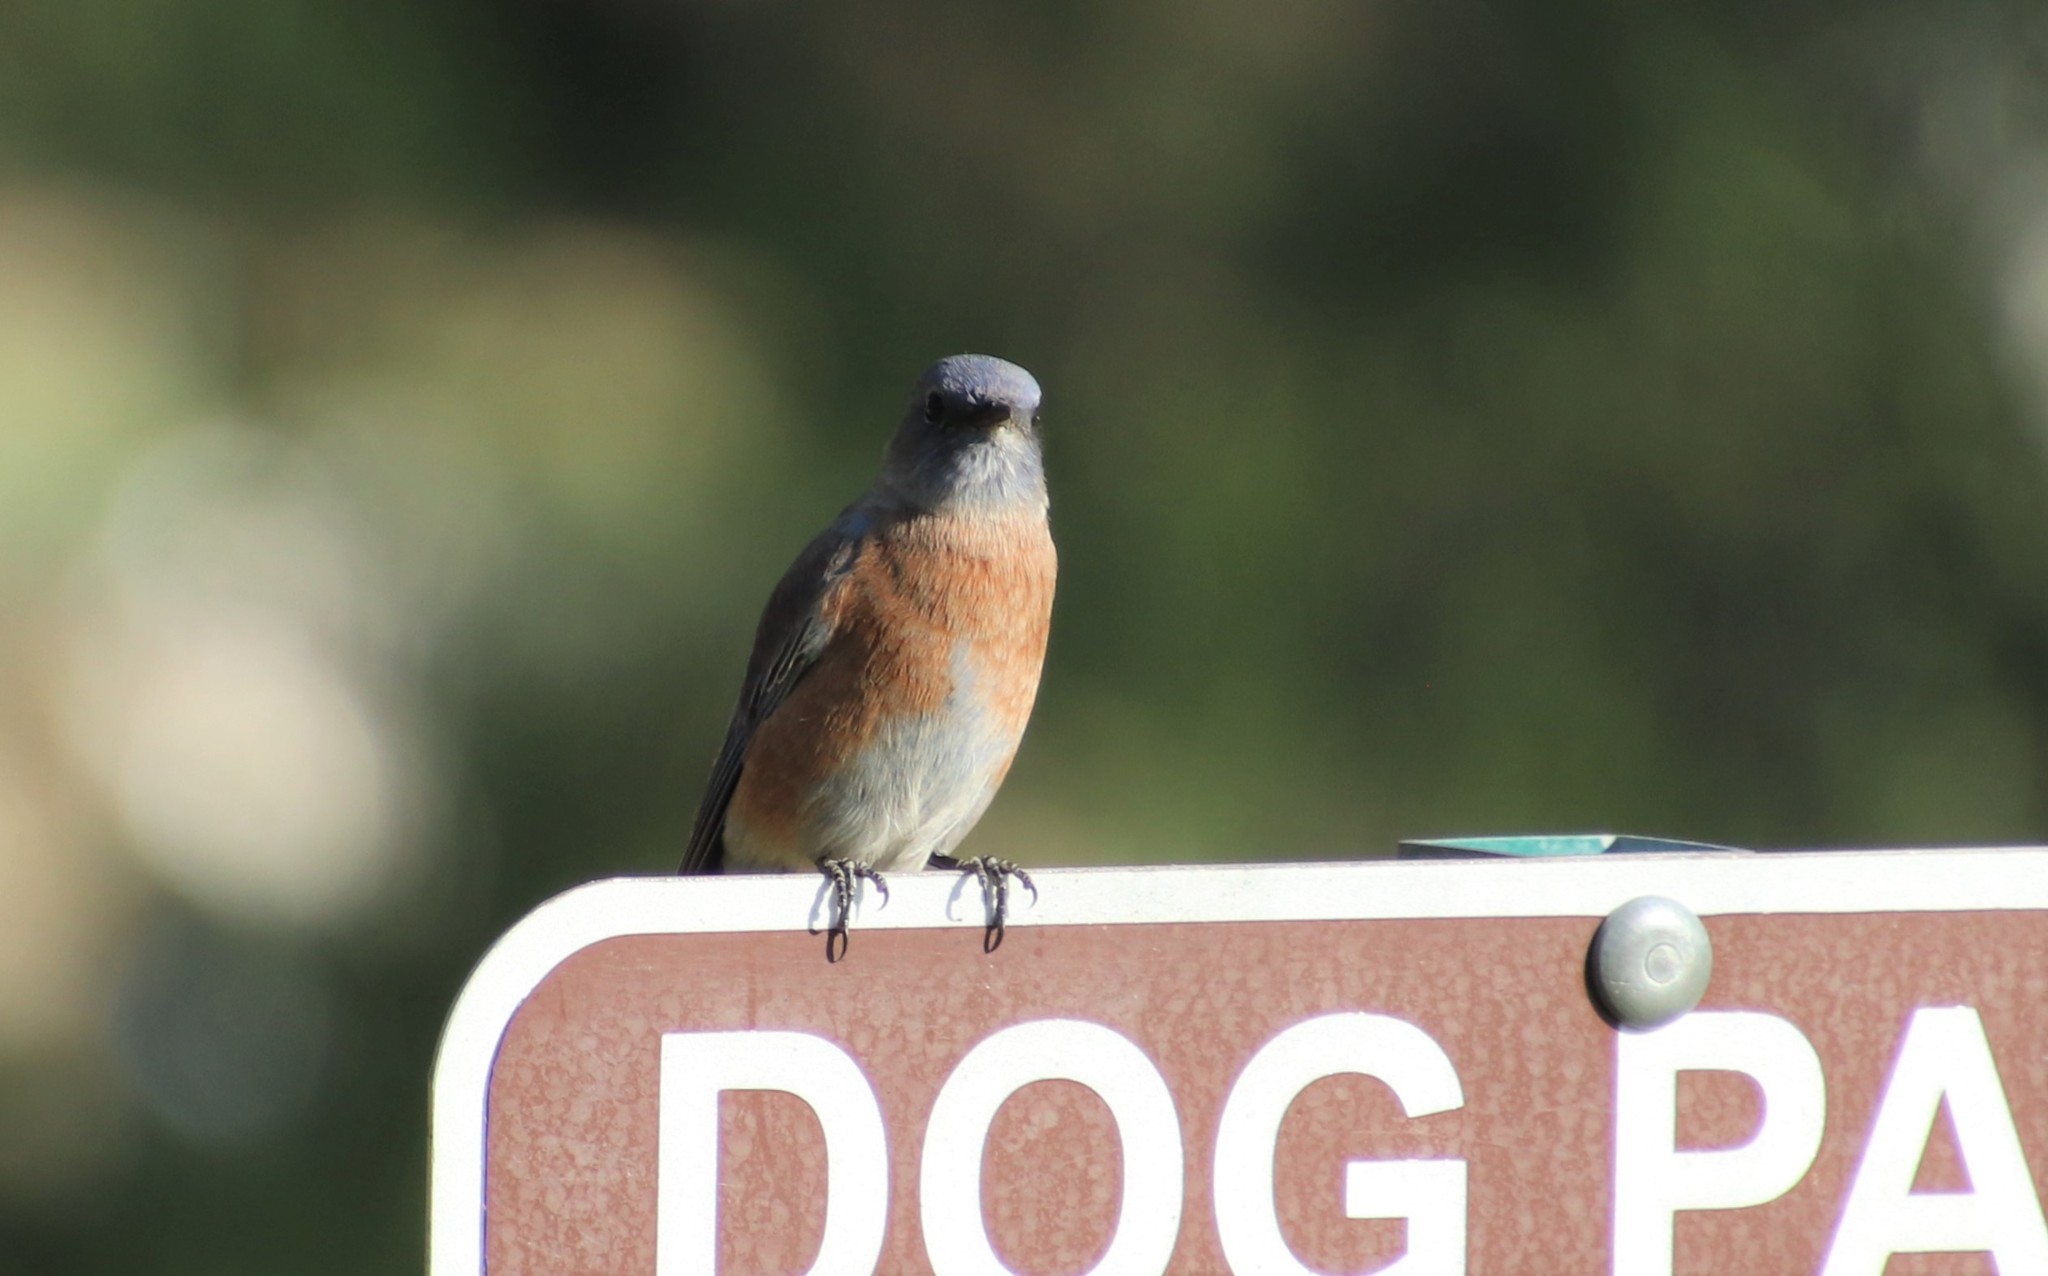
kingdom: Animalia
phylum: Chordata
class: Aves
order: Passeriformes
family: Turdidae
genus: Sialia
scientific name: Sialia mexicana
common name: Western bluebird
